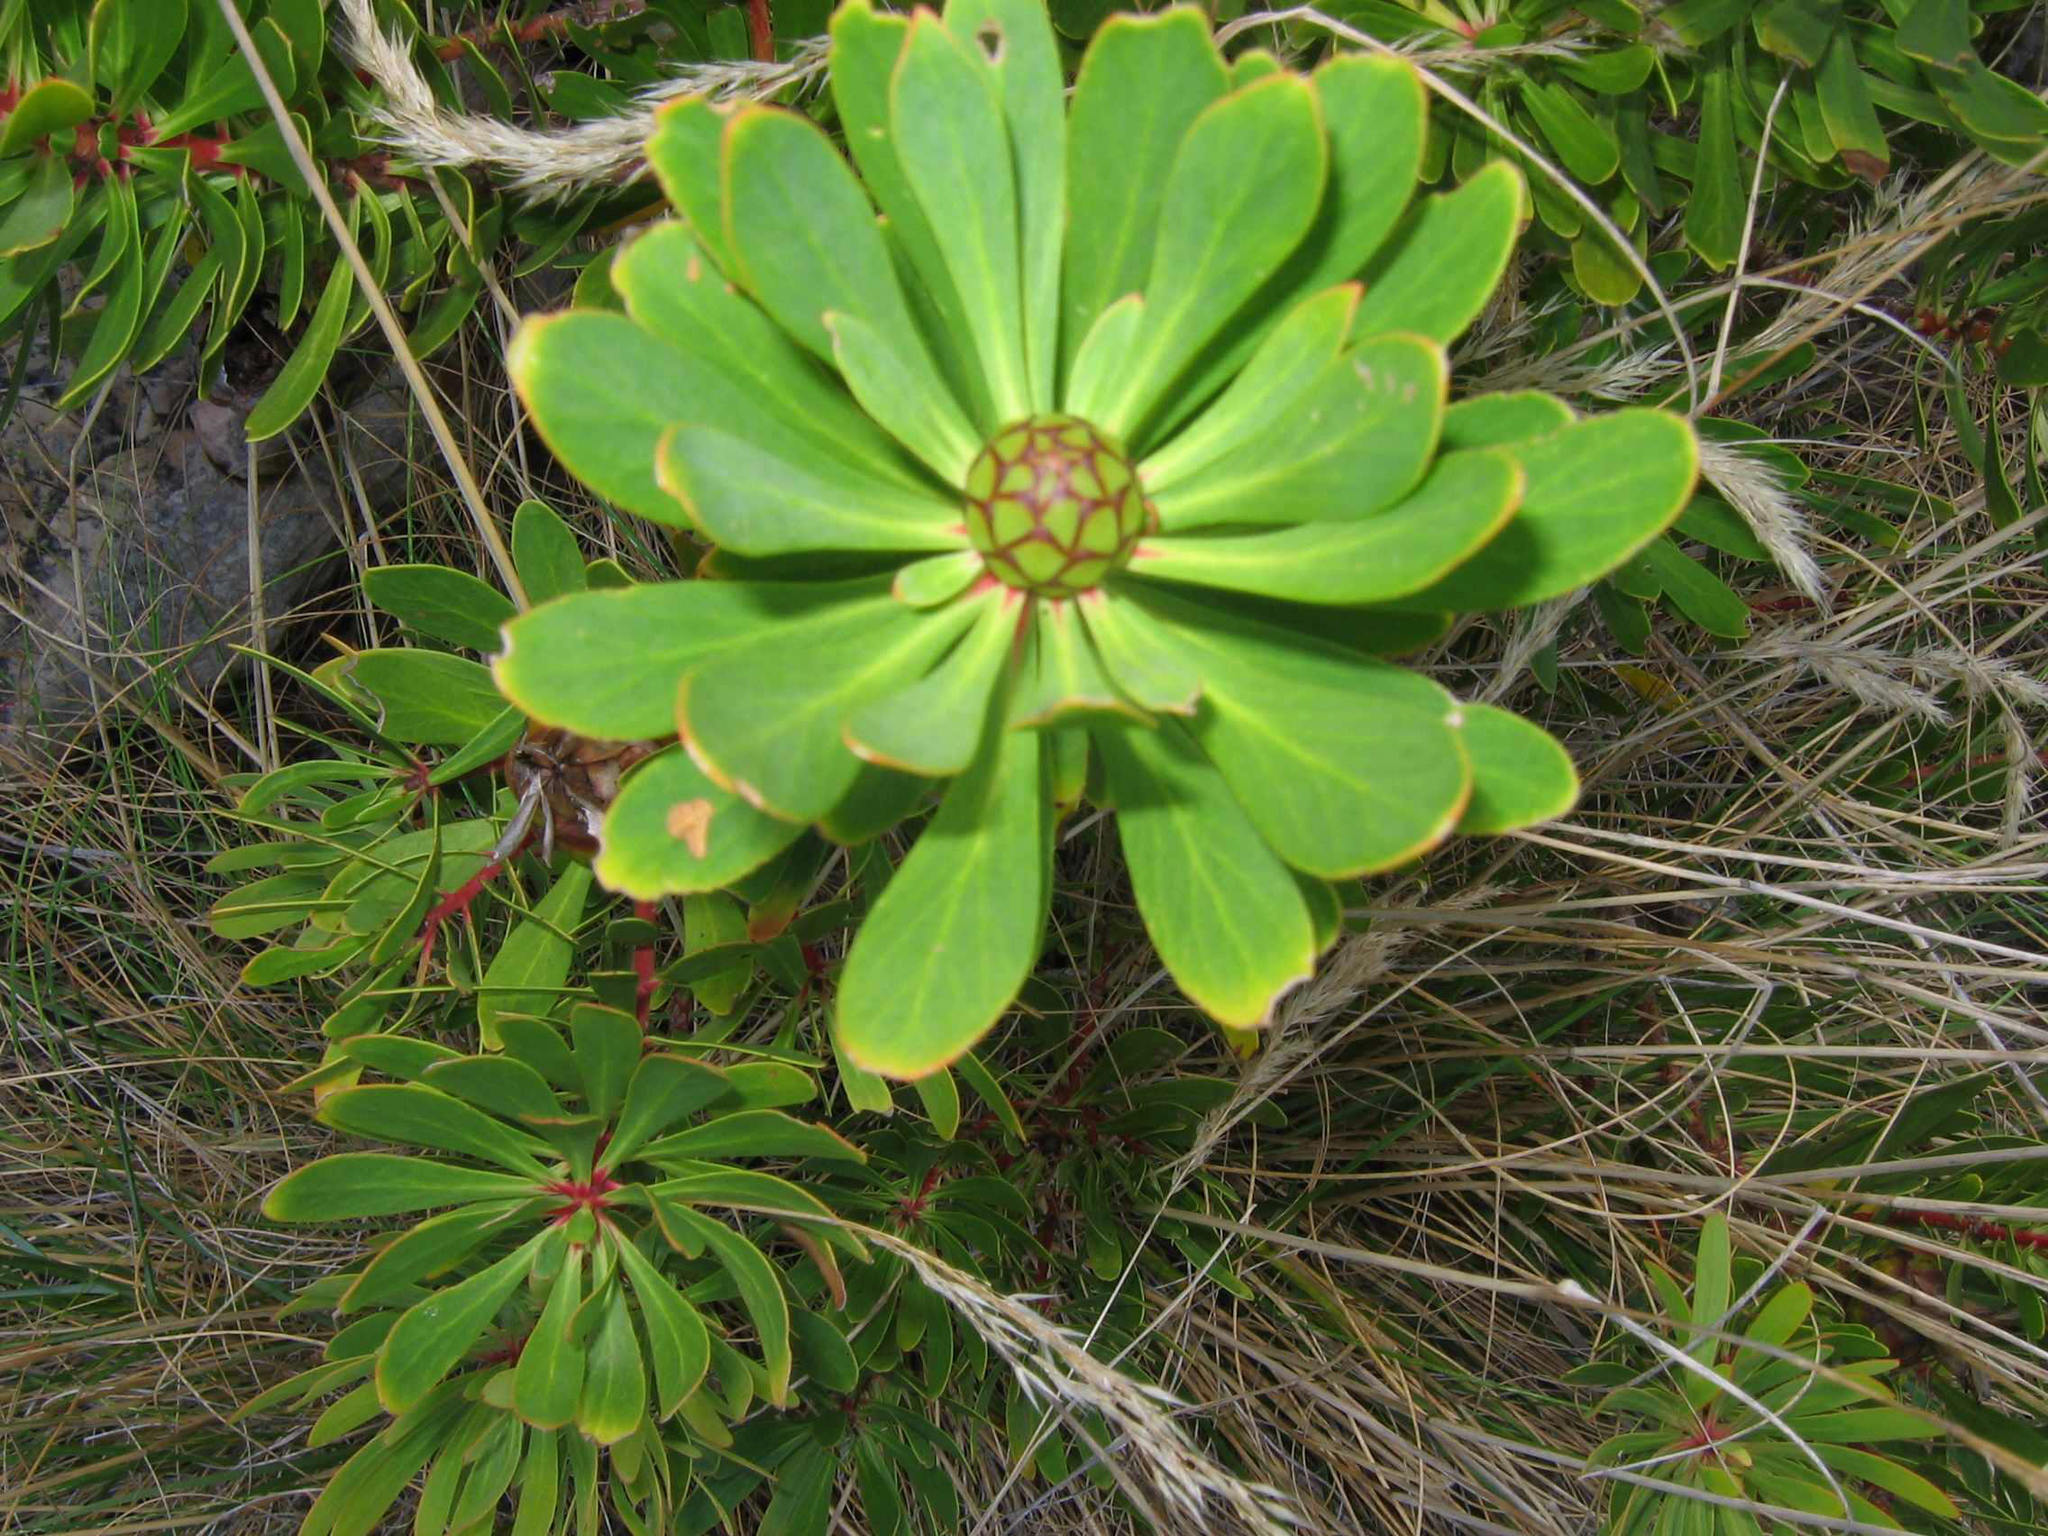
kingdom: Plantae
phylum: Tracheophyta
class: Magnoliopsida
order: Proteales
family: Proteaceae
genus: Protea
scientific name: Protea lanceolata
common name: Lance-leaved protea
